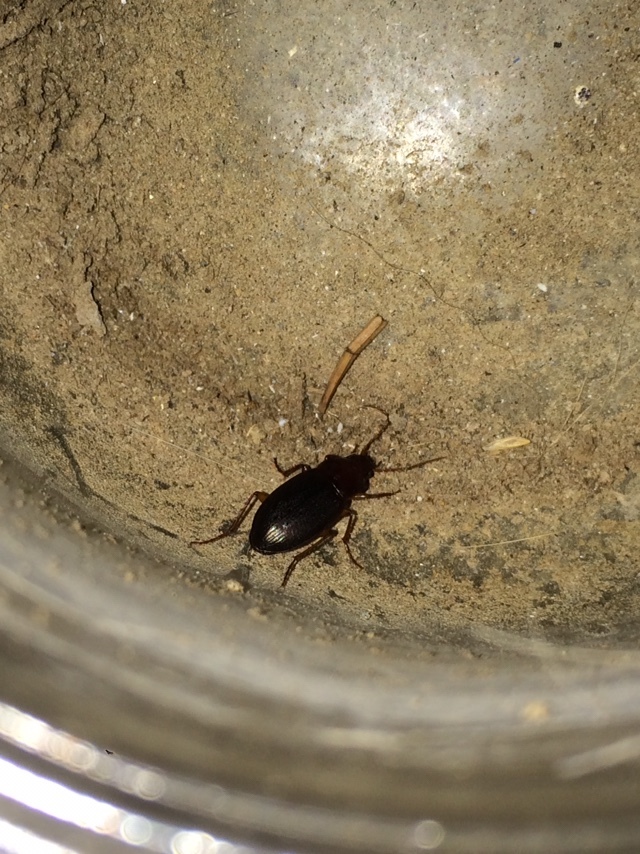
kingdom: Animalia
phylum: Arthropoda
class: Insecta
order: Coleoptera
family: Carabidae
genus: Calathus
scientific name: Calathus ruficollis
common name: Red-collared harp ground beetle
